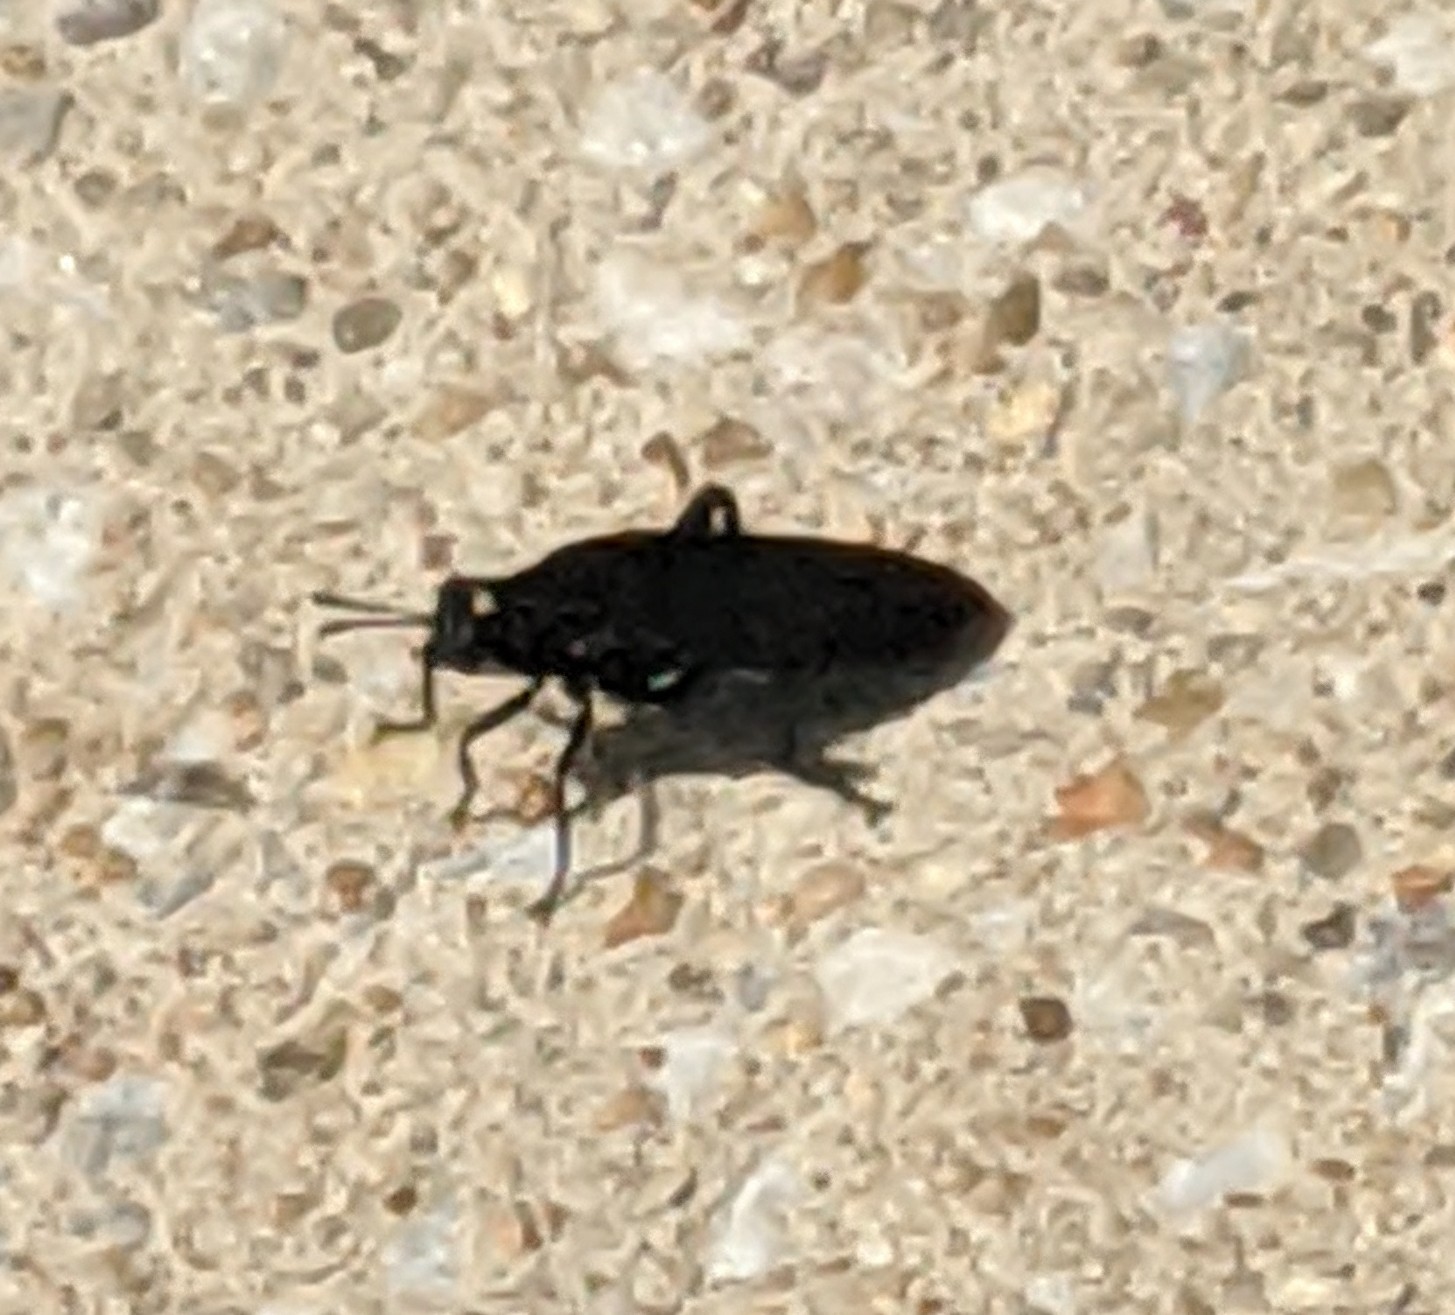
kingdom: Animalia
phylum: Arthropoda
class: Insecta
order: Diptera
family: Mydidae
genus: Mydas
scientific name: Mydas clavatus
